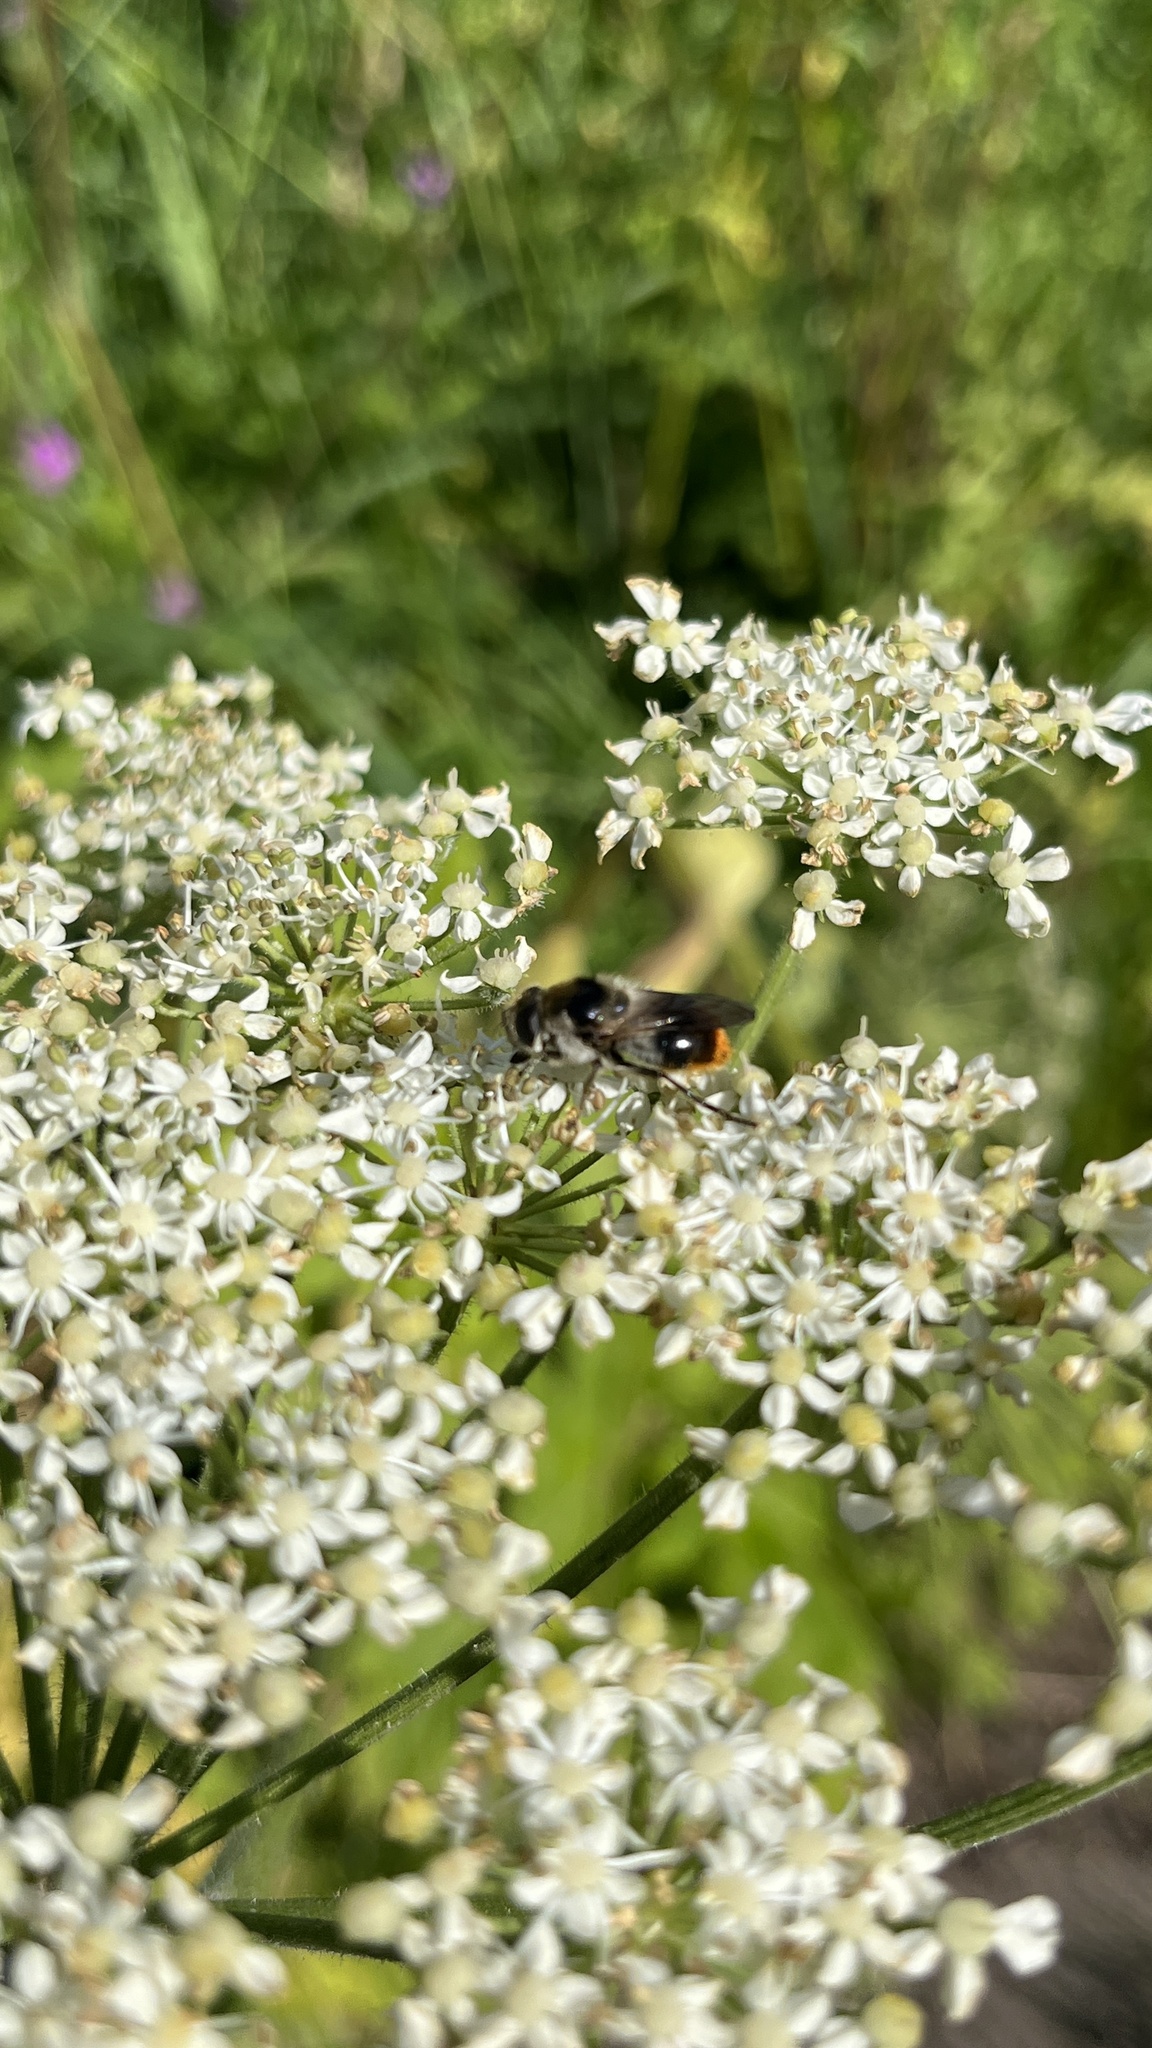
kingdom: Animalia
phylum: Arthropoda
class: Insecta
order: Diptera
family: Syrphidae
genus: Cheilosia
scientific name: Cheilosia illustrata
